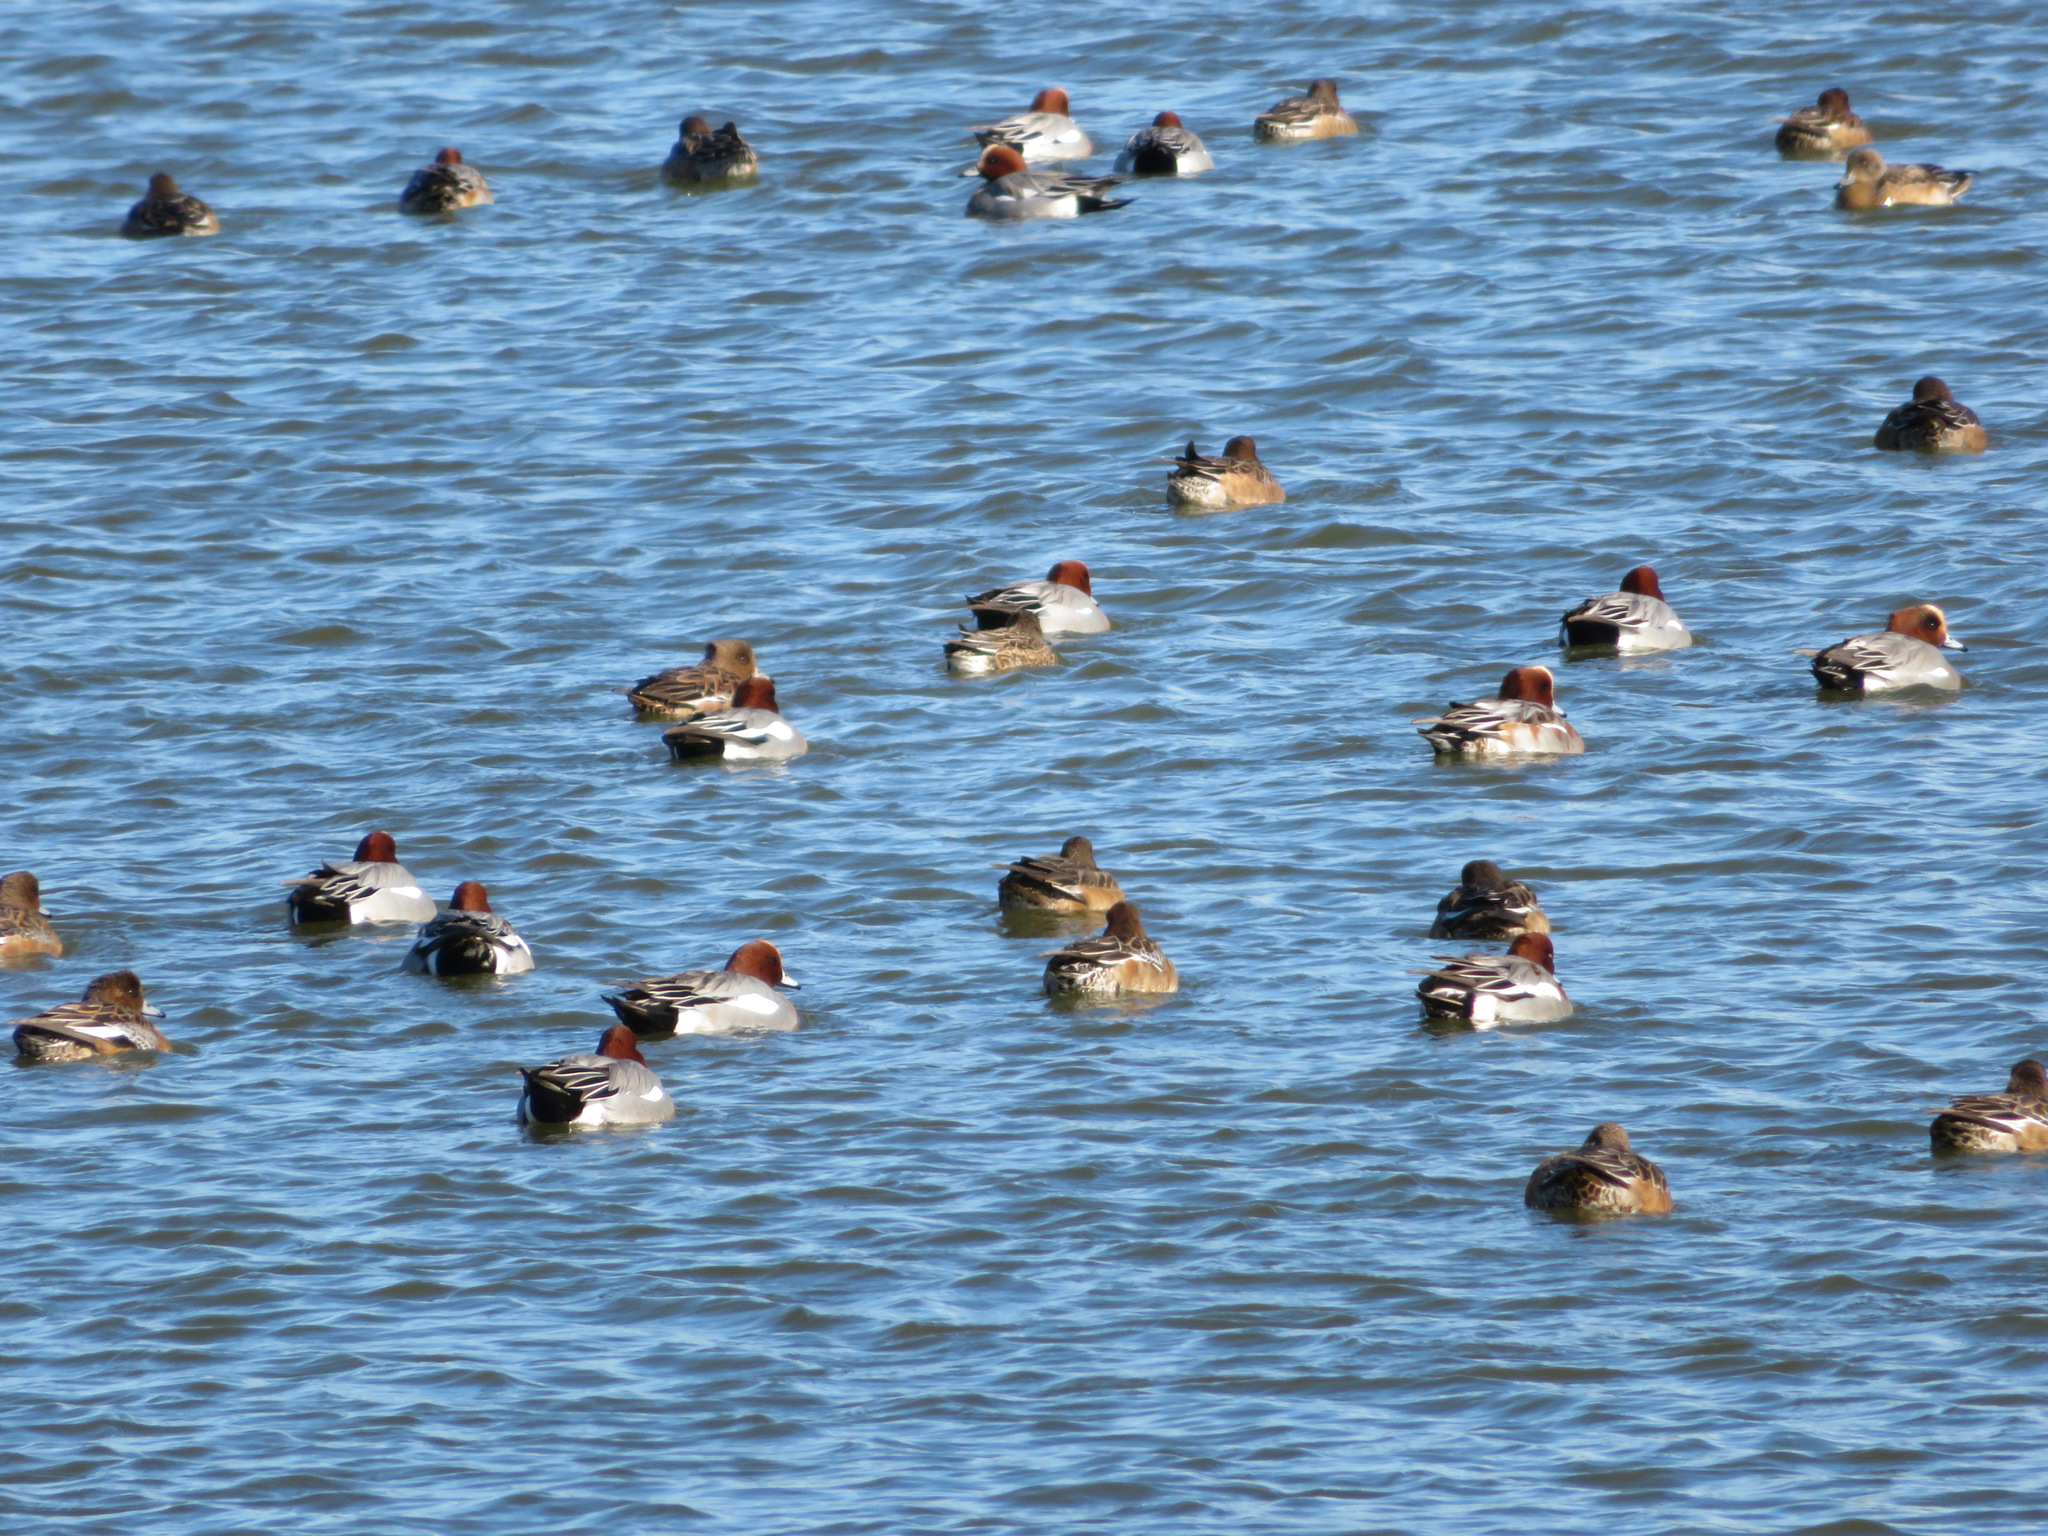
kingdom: Animalia
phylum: Chordata
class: Aves
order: Anseriformes
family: Anatidae
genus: Mareca
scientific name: Mareca penelope
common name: Eurasian wigeon
